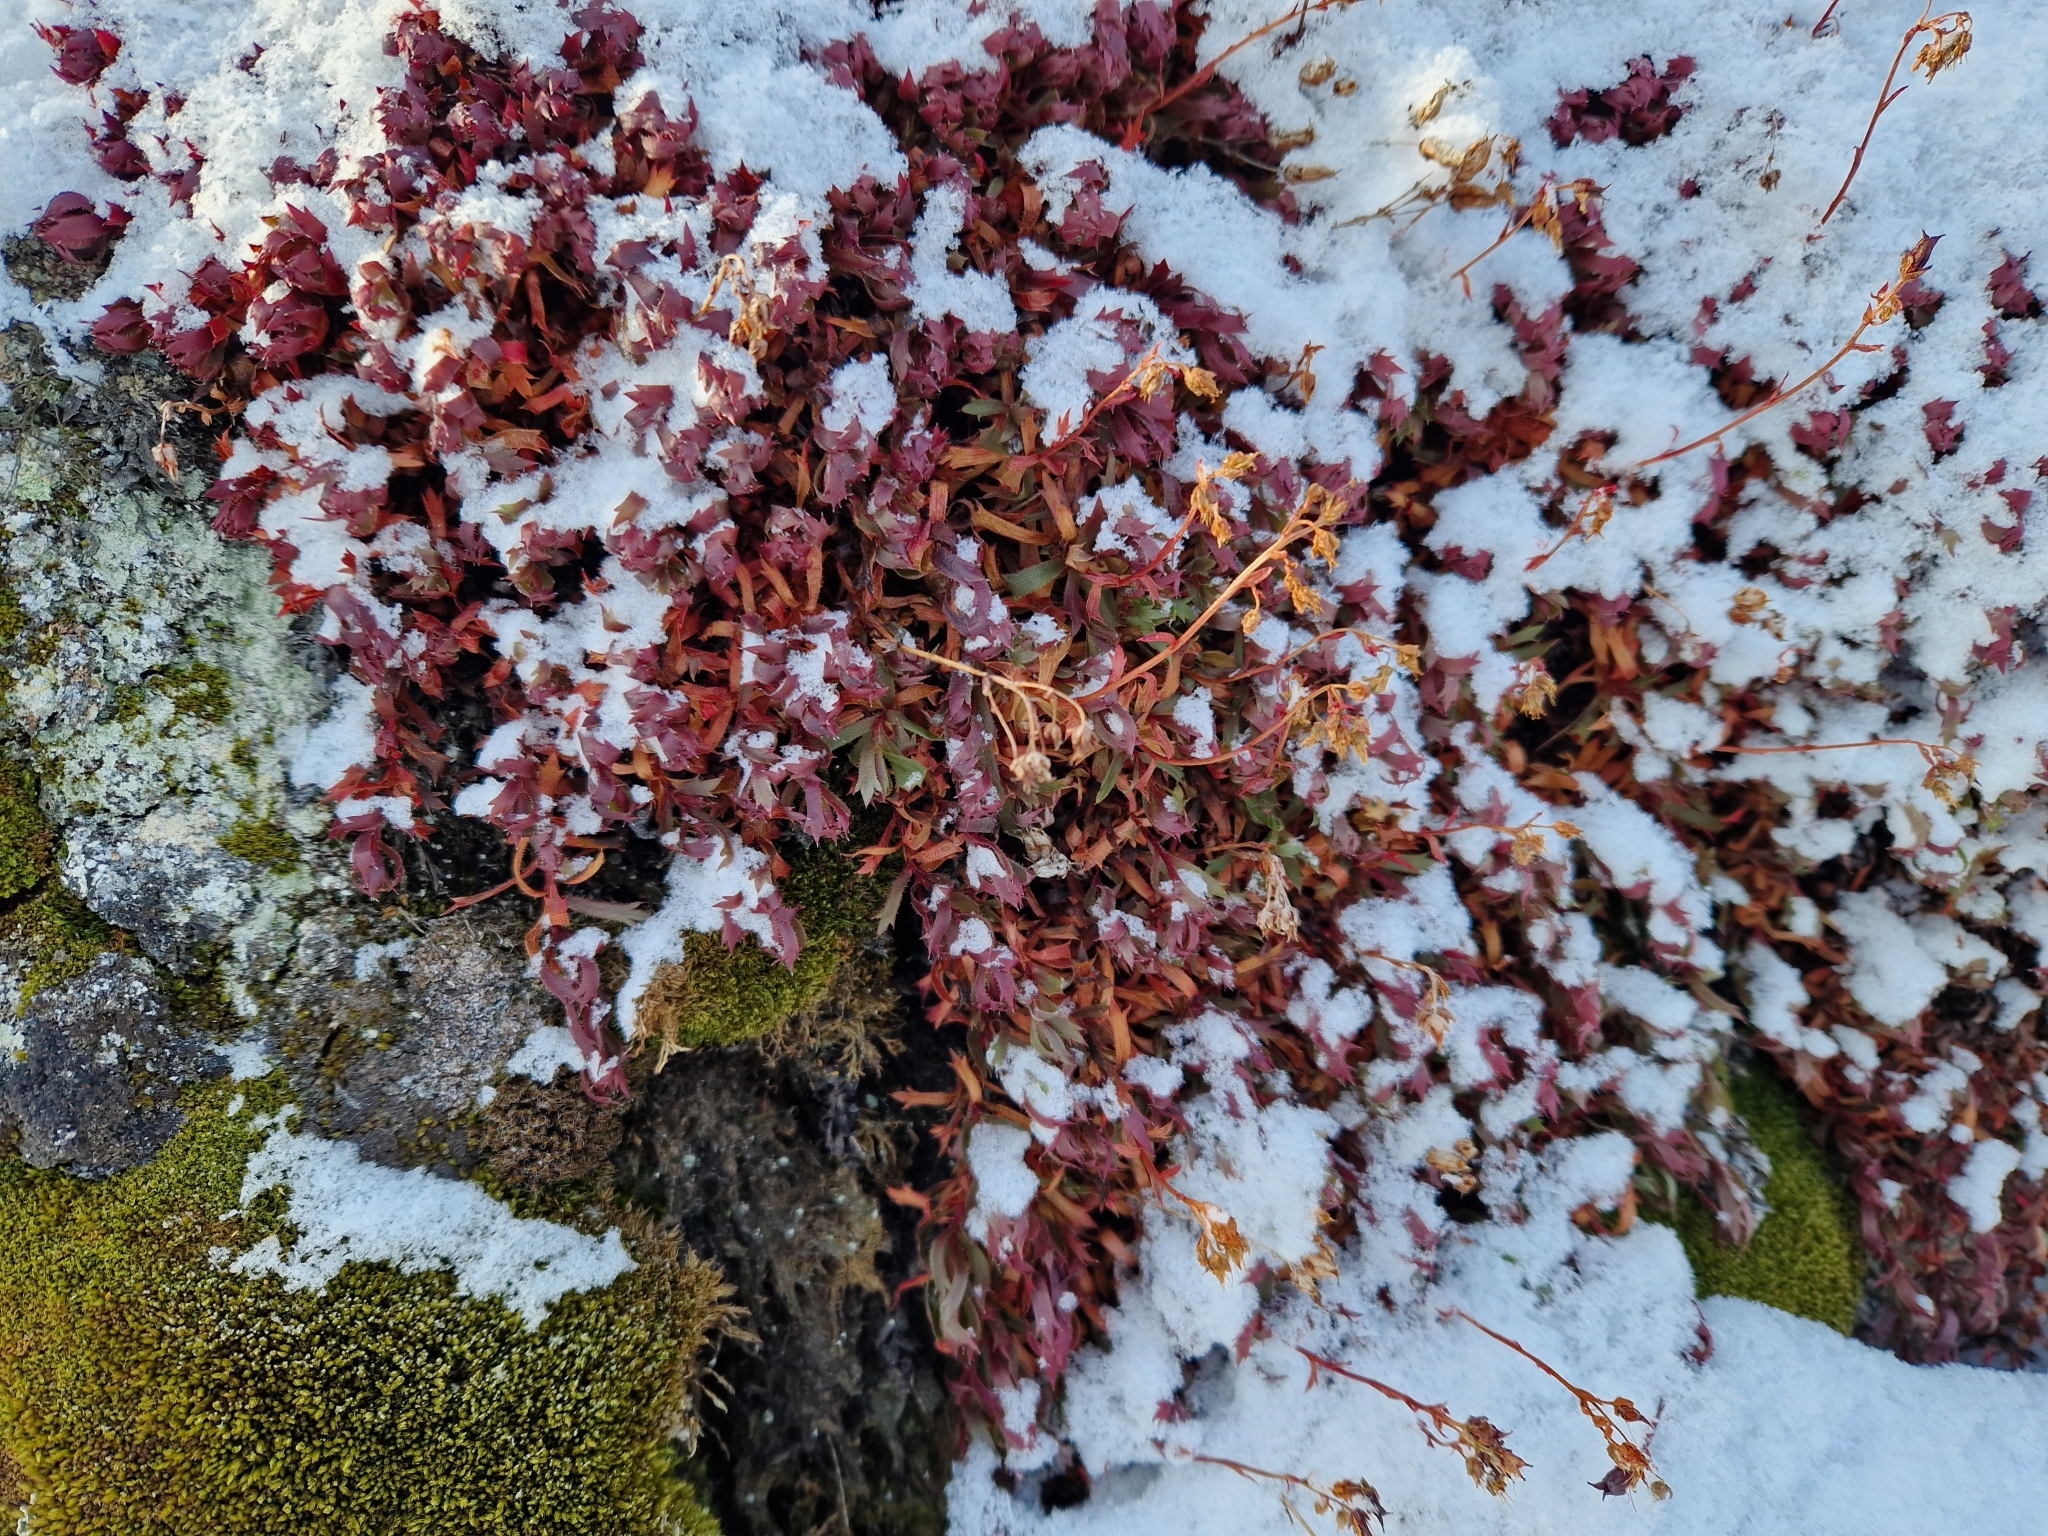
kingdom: Plantae
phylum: Tracheophyta
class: Magnoliopsida
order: Saxifragales
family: Saxifragaceae
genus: Saxifraga
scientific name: Saxifraga tricuspidata
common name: Prickly saxifrage
